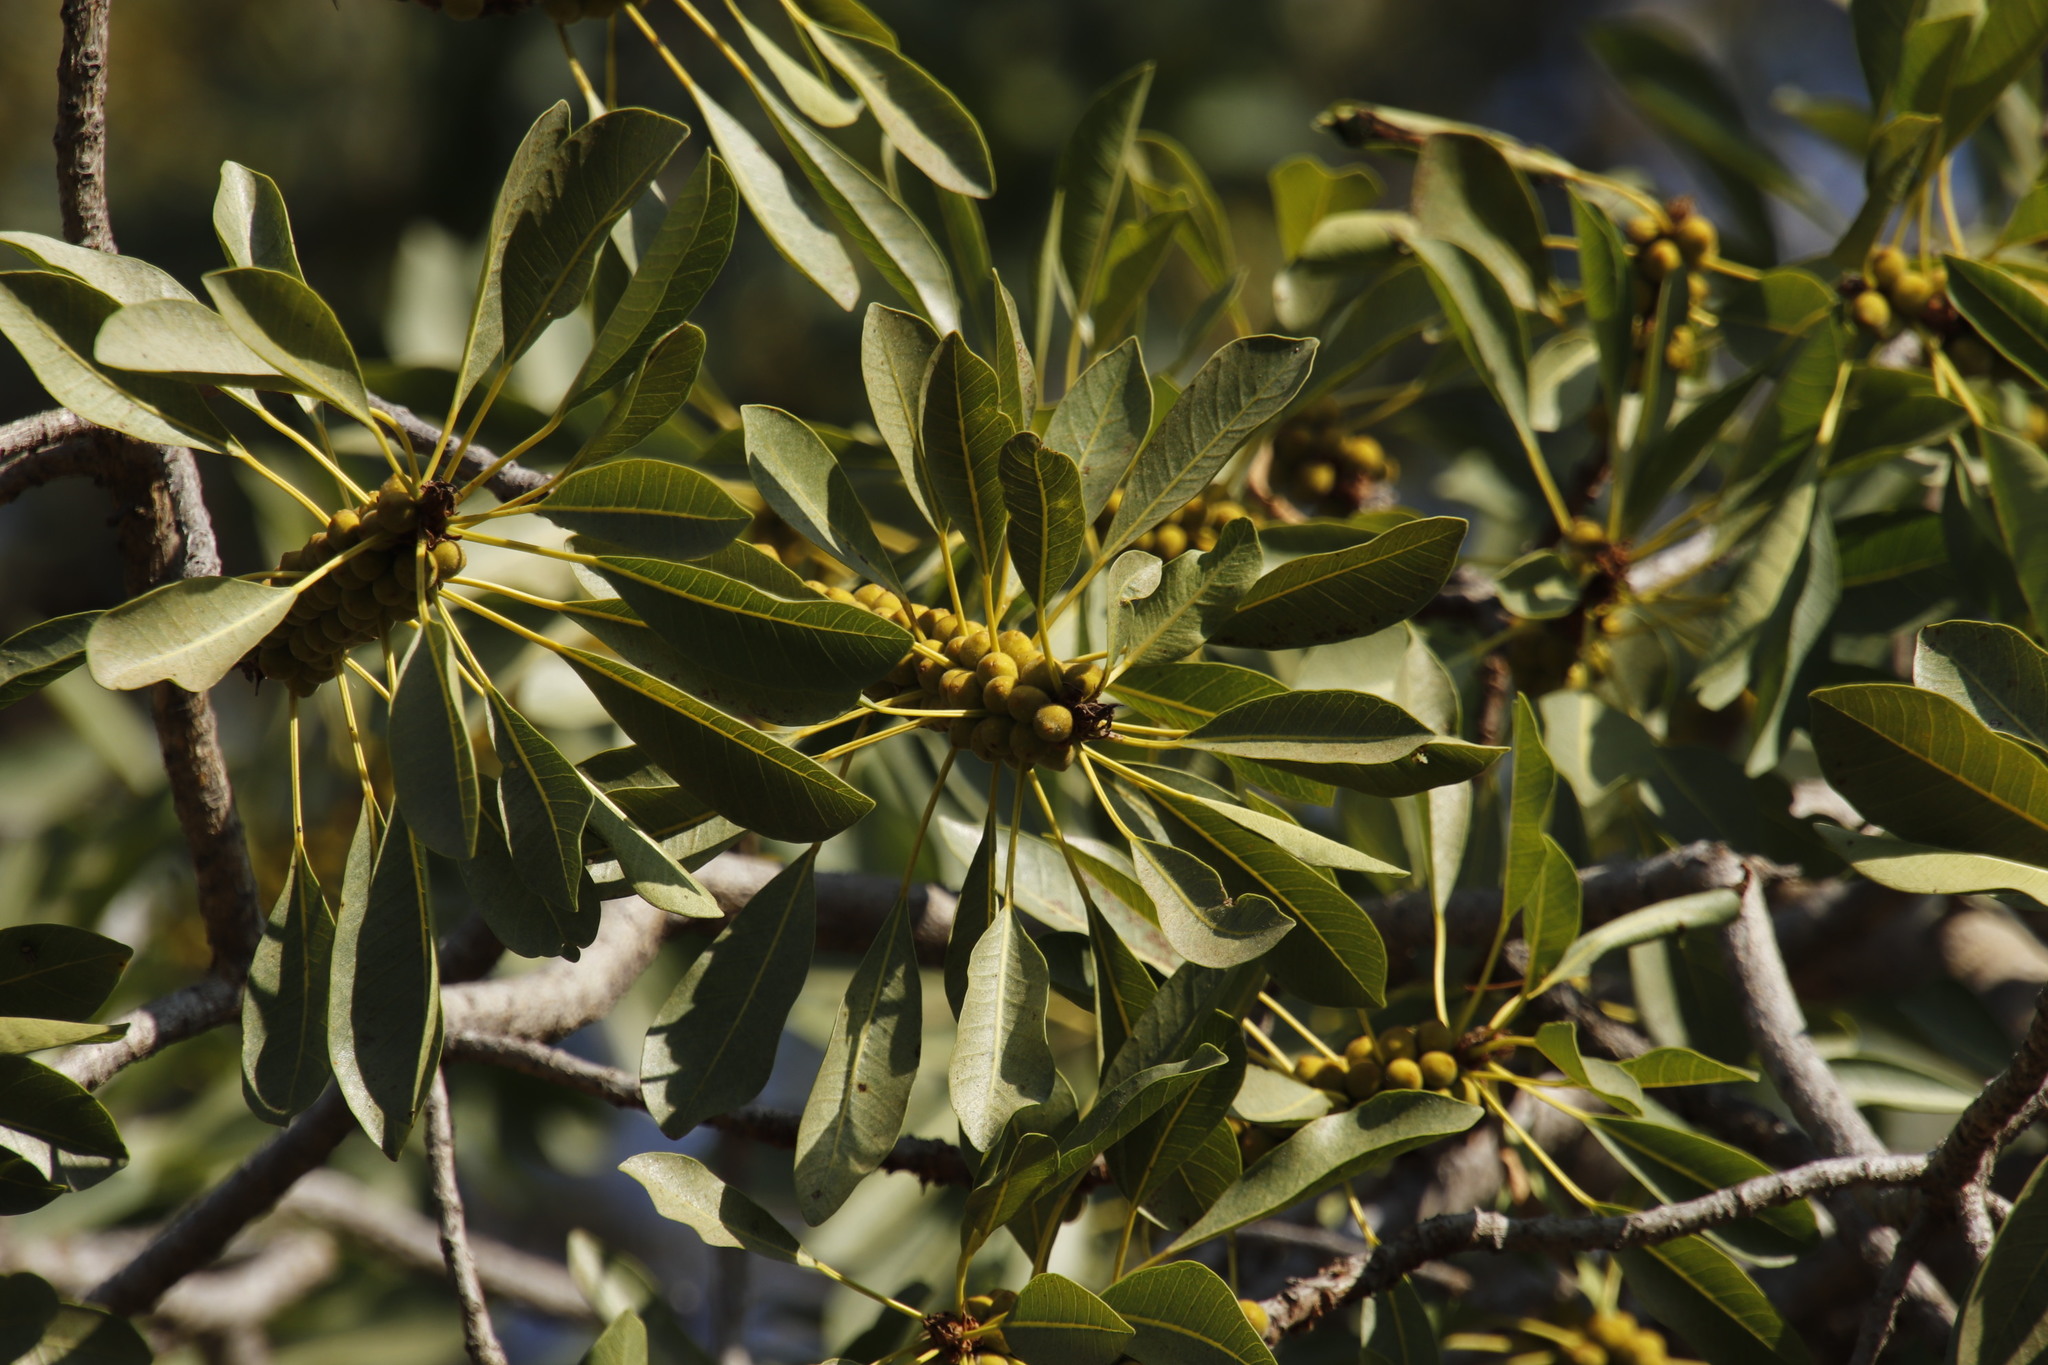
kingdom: Plantae
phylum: Tracheophyta
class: Magnoliopsida
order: Rosales
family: Moraceae
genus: Ficus
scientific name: Ficus petersii
